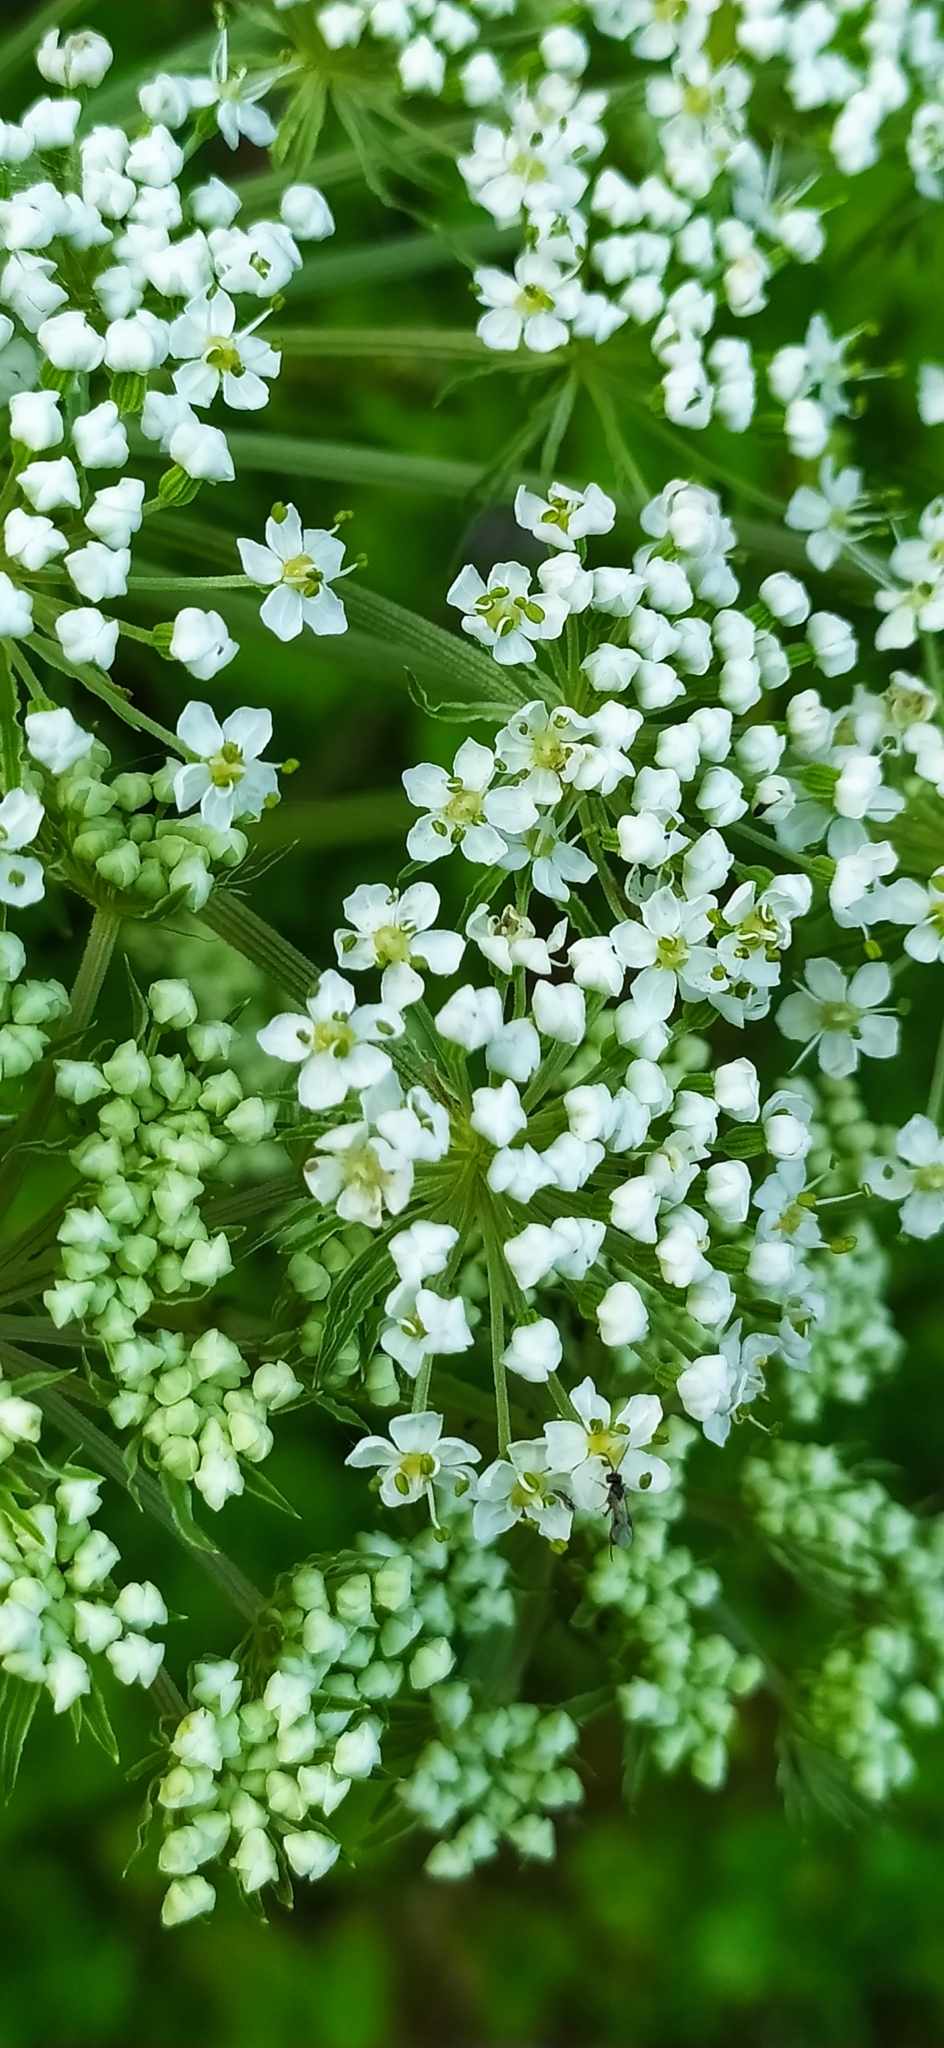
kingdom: Plantae
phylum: Tracheophyta
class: Magnoliopsida
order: Apiales
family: Apiaceae
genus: Pleurospermum
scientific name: Pleurospermum uralense
